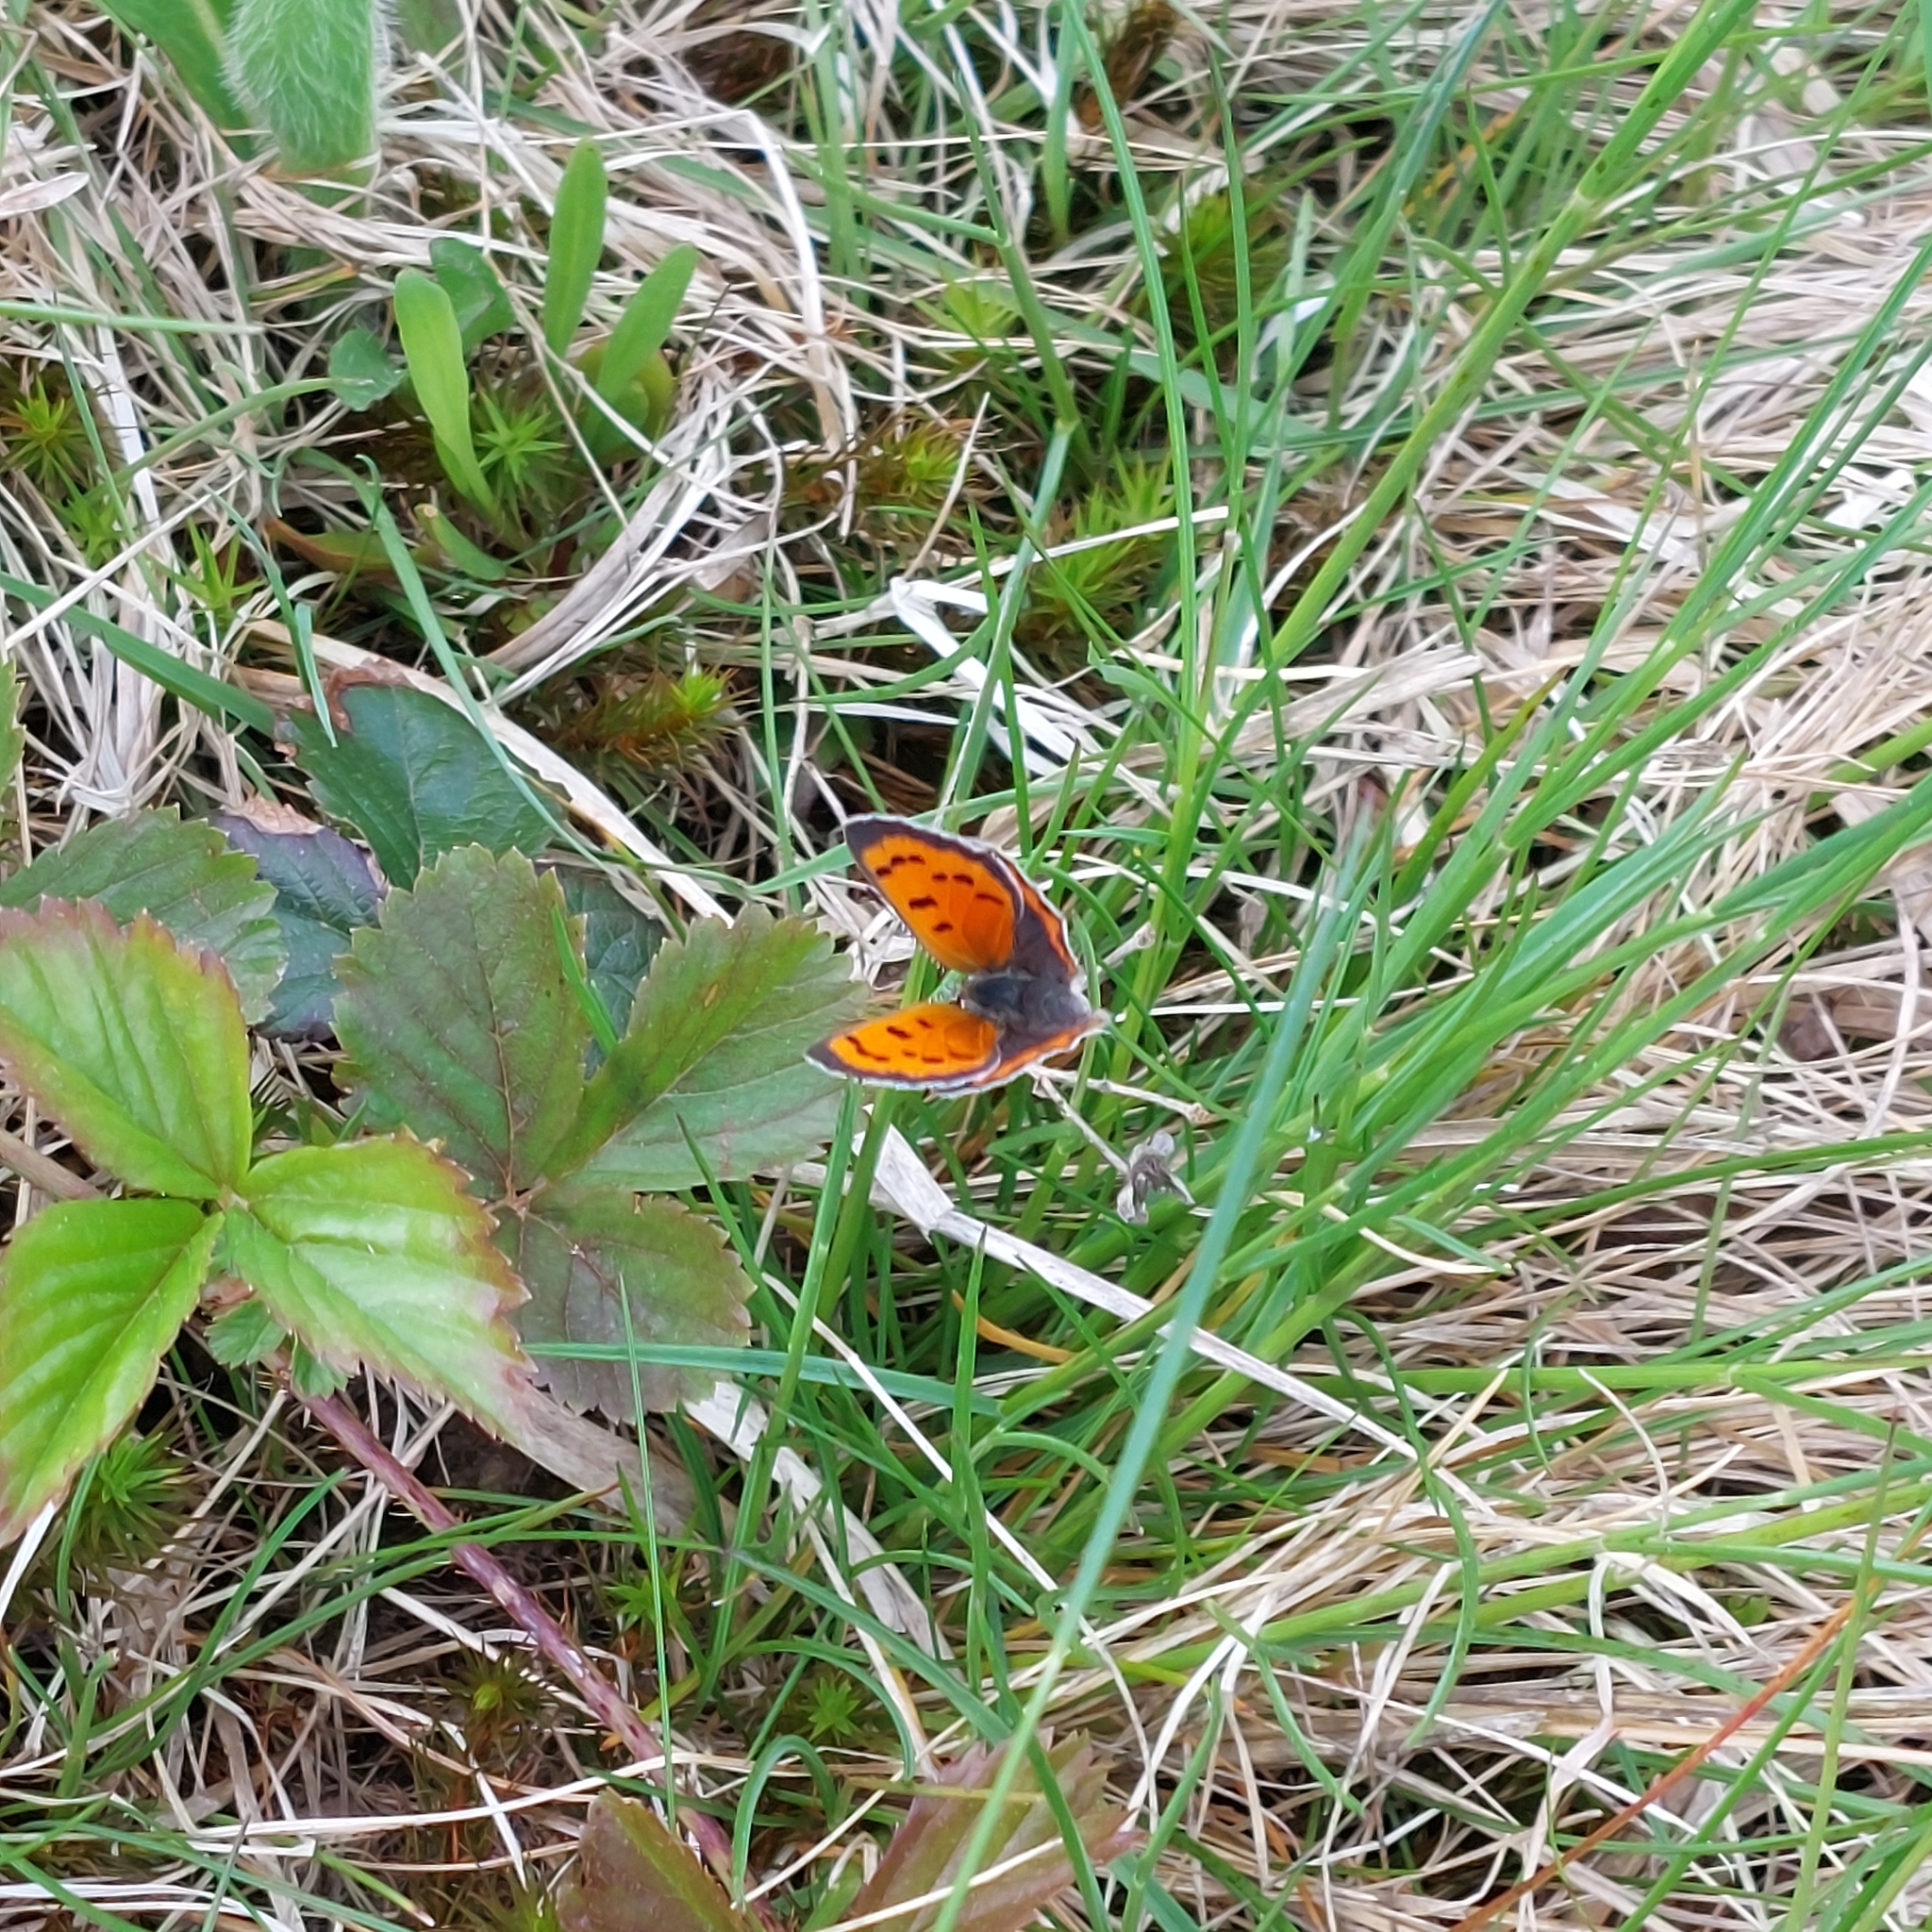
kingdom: Animalia
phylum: Arthropoda
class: Insecta
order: Lepidoptera
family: Lycaenidae
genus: Lycaena
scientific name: Lycaena hypophlaeas
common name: American copper
